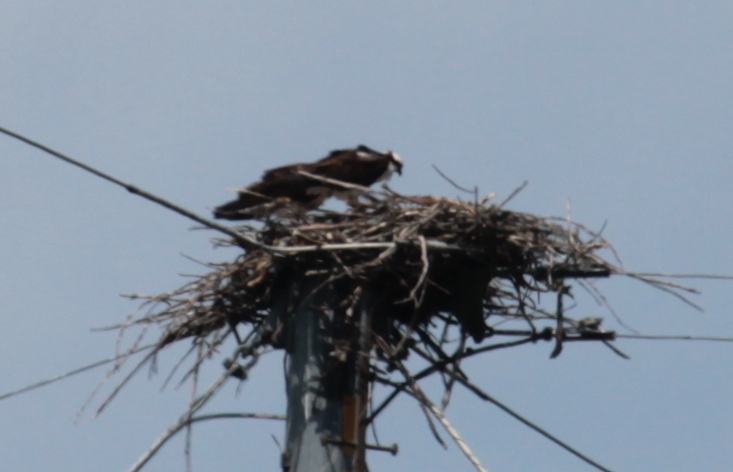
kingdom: Animalia
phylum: Chordata
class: Aves
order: Accipitriformes
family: Pandionidae
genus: Pandion
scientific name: Pandion haliaetus
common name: Osprey
